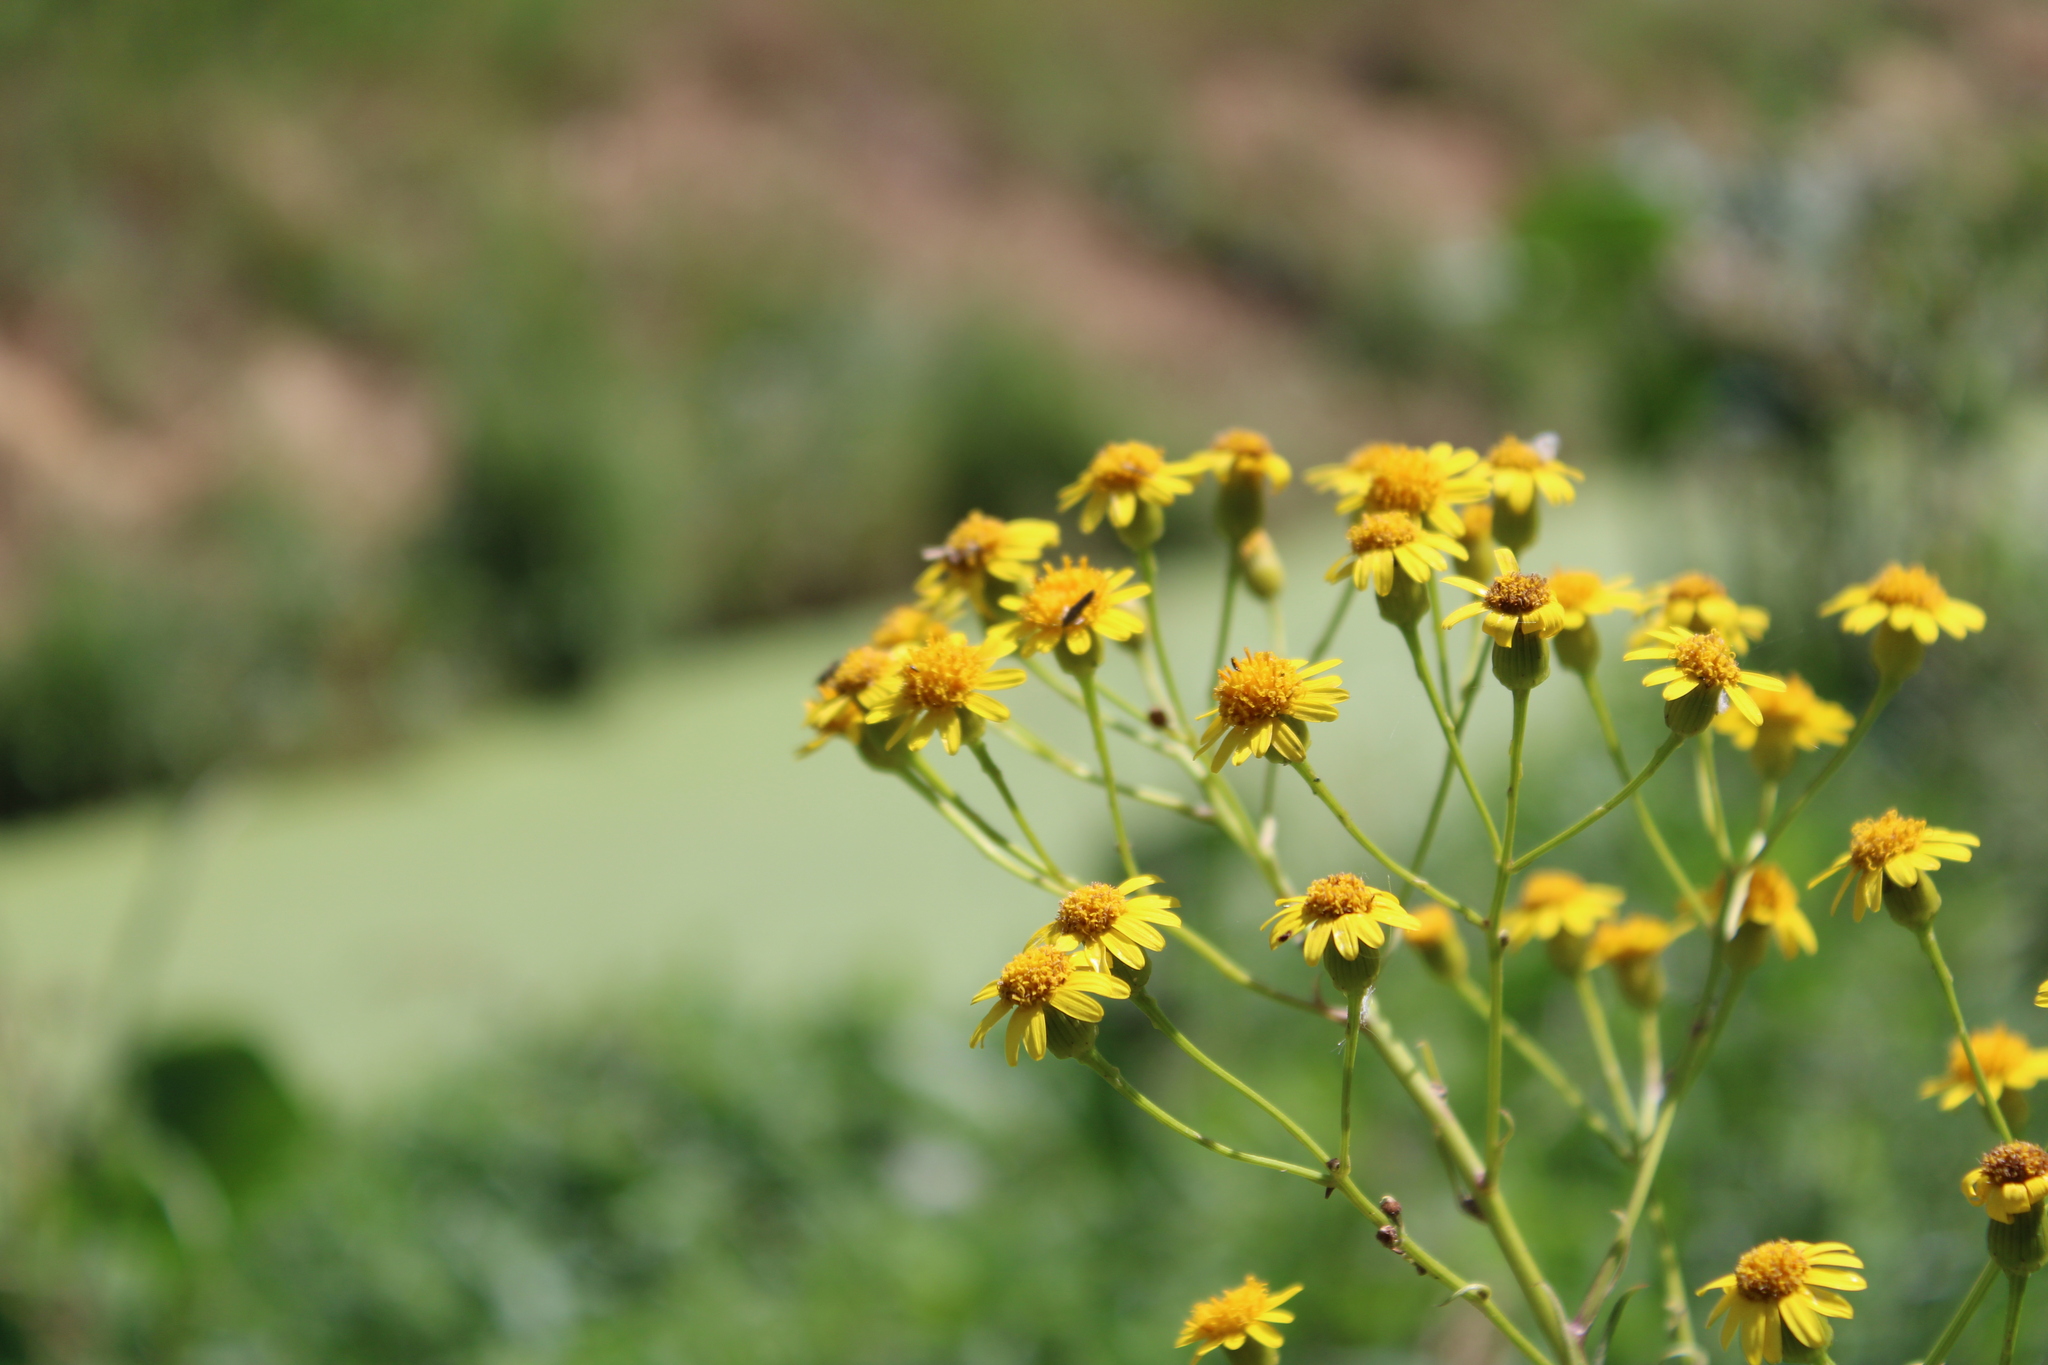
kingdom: Plantae
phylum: Tracheophyta
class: Magnoliopsida
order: Asterales
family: Asteraceae
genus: Senecio
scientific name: Senecio brasiliensis
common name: Hemp-leaf ragwort
